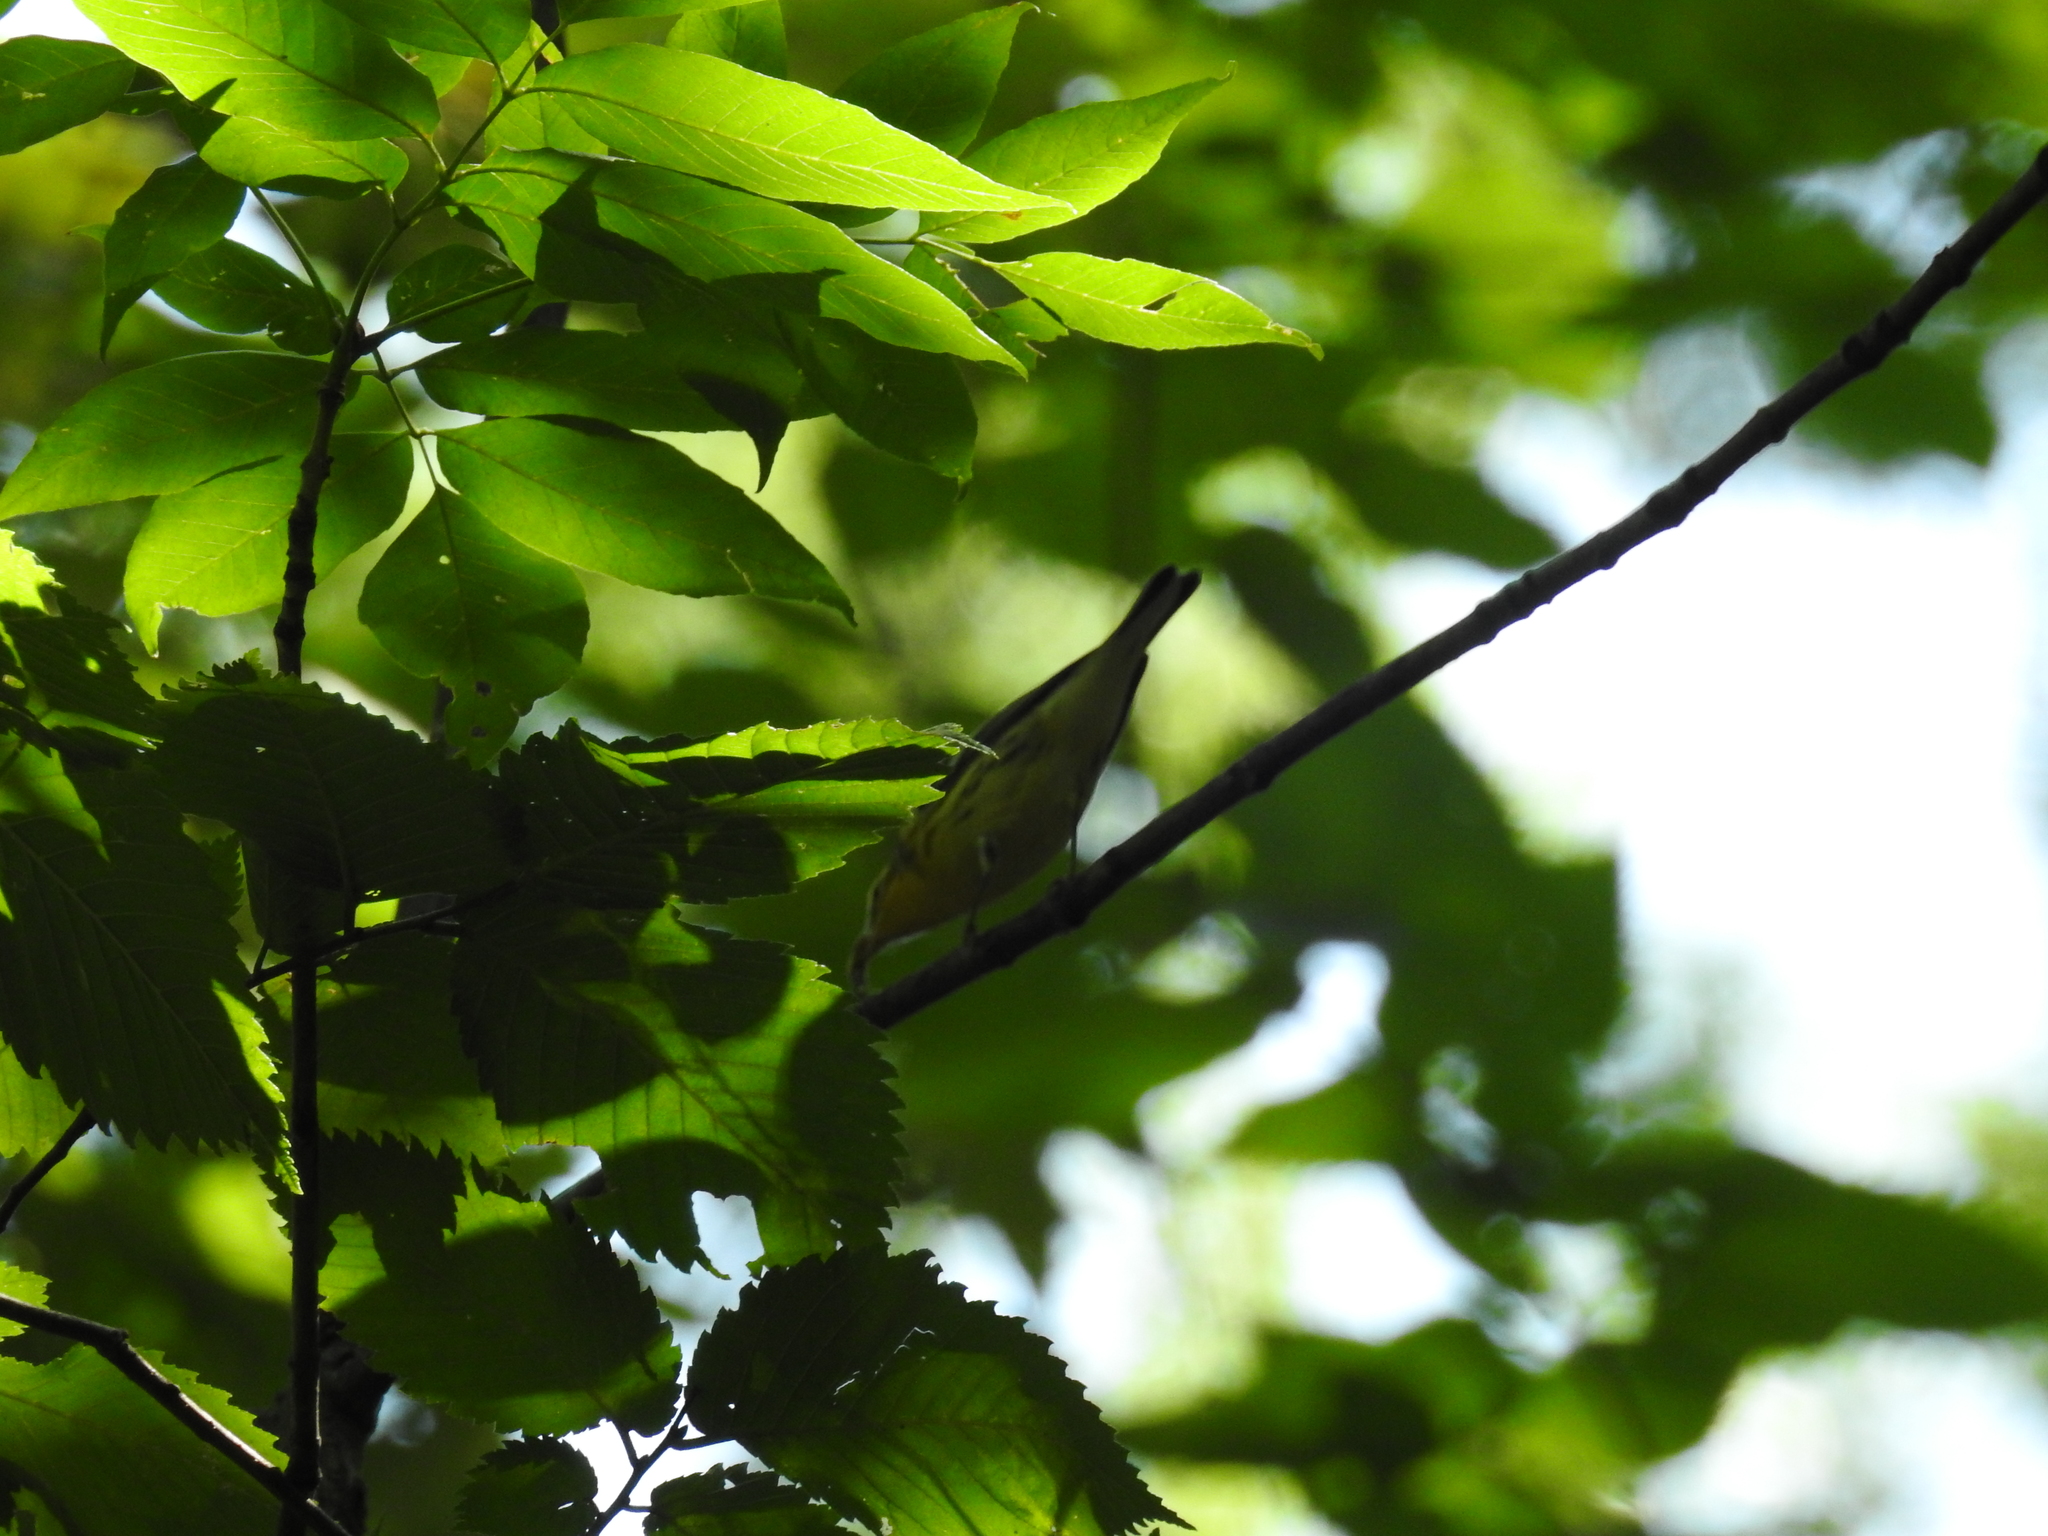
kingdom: Animalia
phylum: Chordata
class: Aves
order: Passeriformes
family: Parulidae
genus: Setophaga
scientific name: Setophaga fusca
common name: Blackburnian warbler
